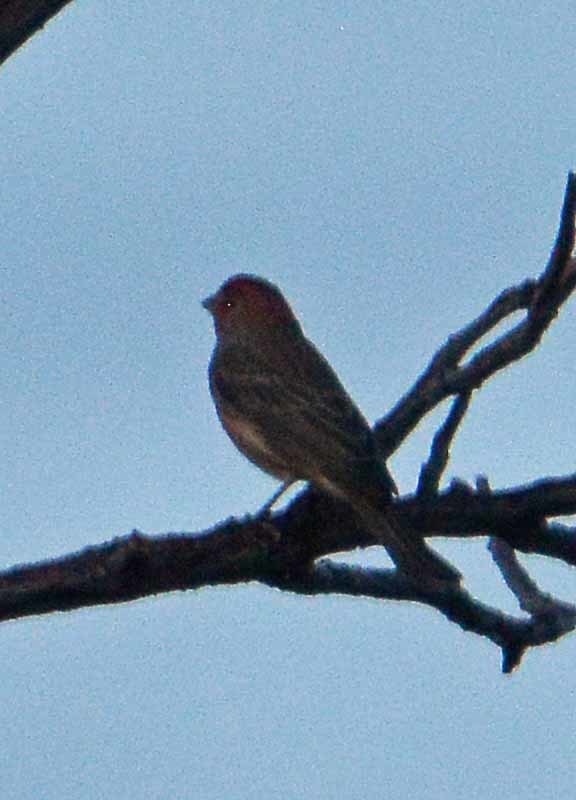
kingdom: Animalia
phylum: Chordata
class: Aves
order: Passeriformes
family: Fringillidae
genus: Haemorhous
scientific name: Haemorhous mexicanus
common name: House finch
